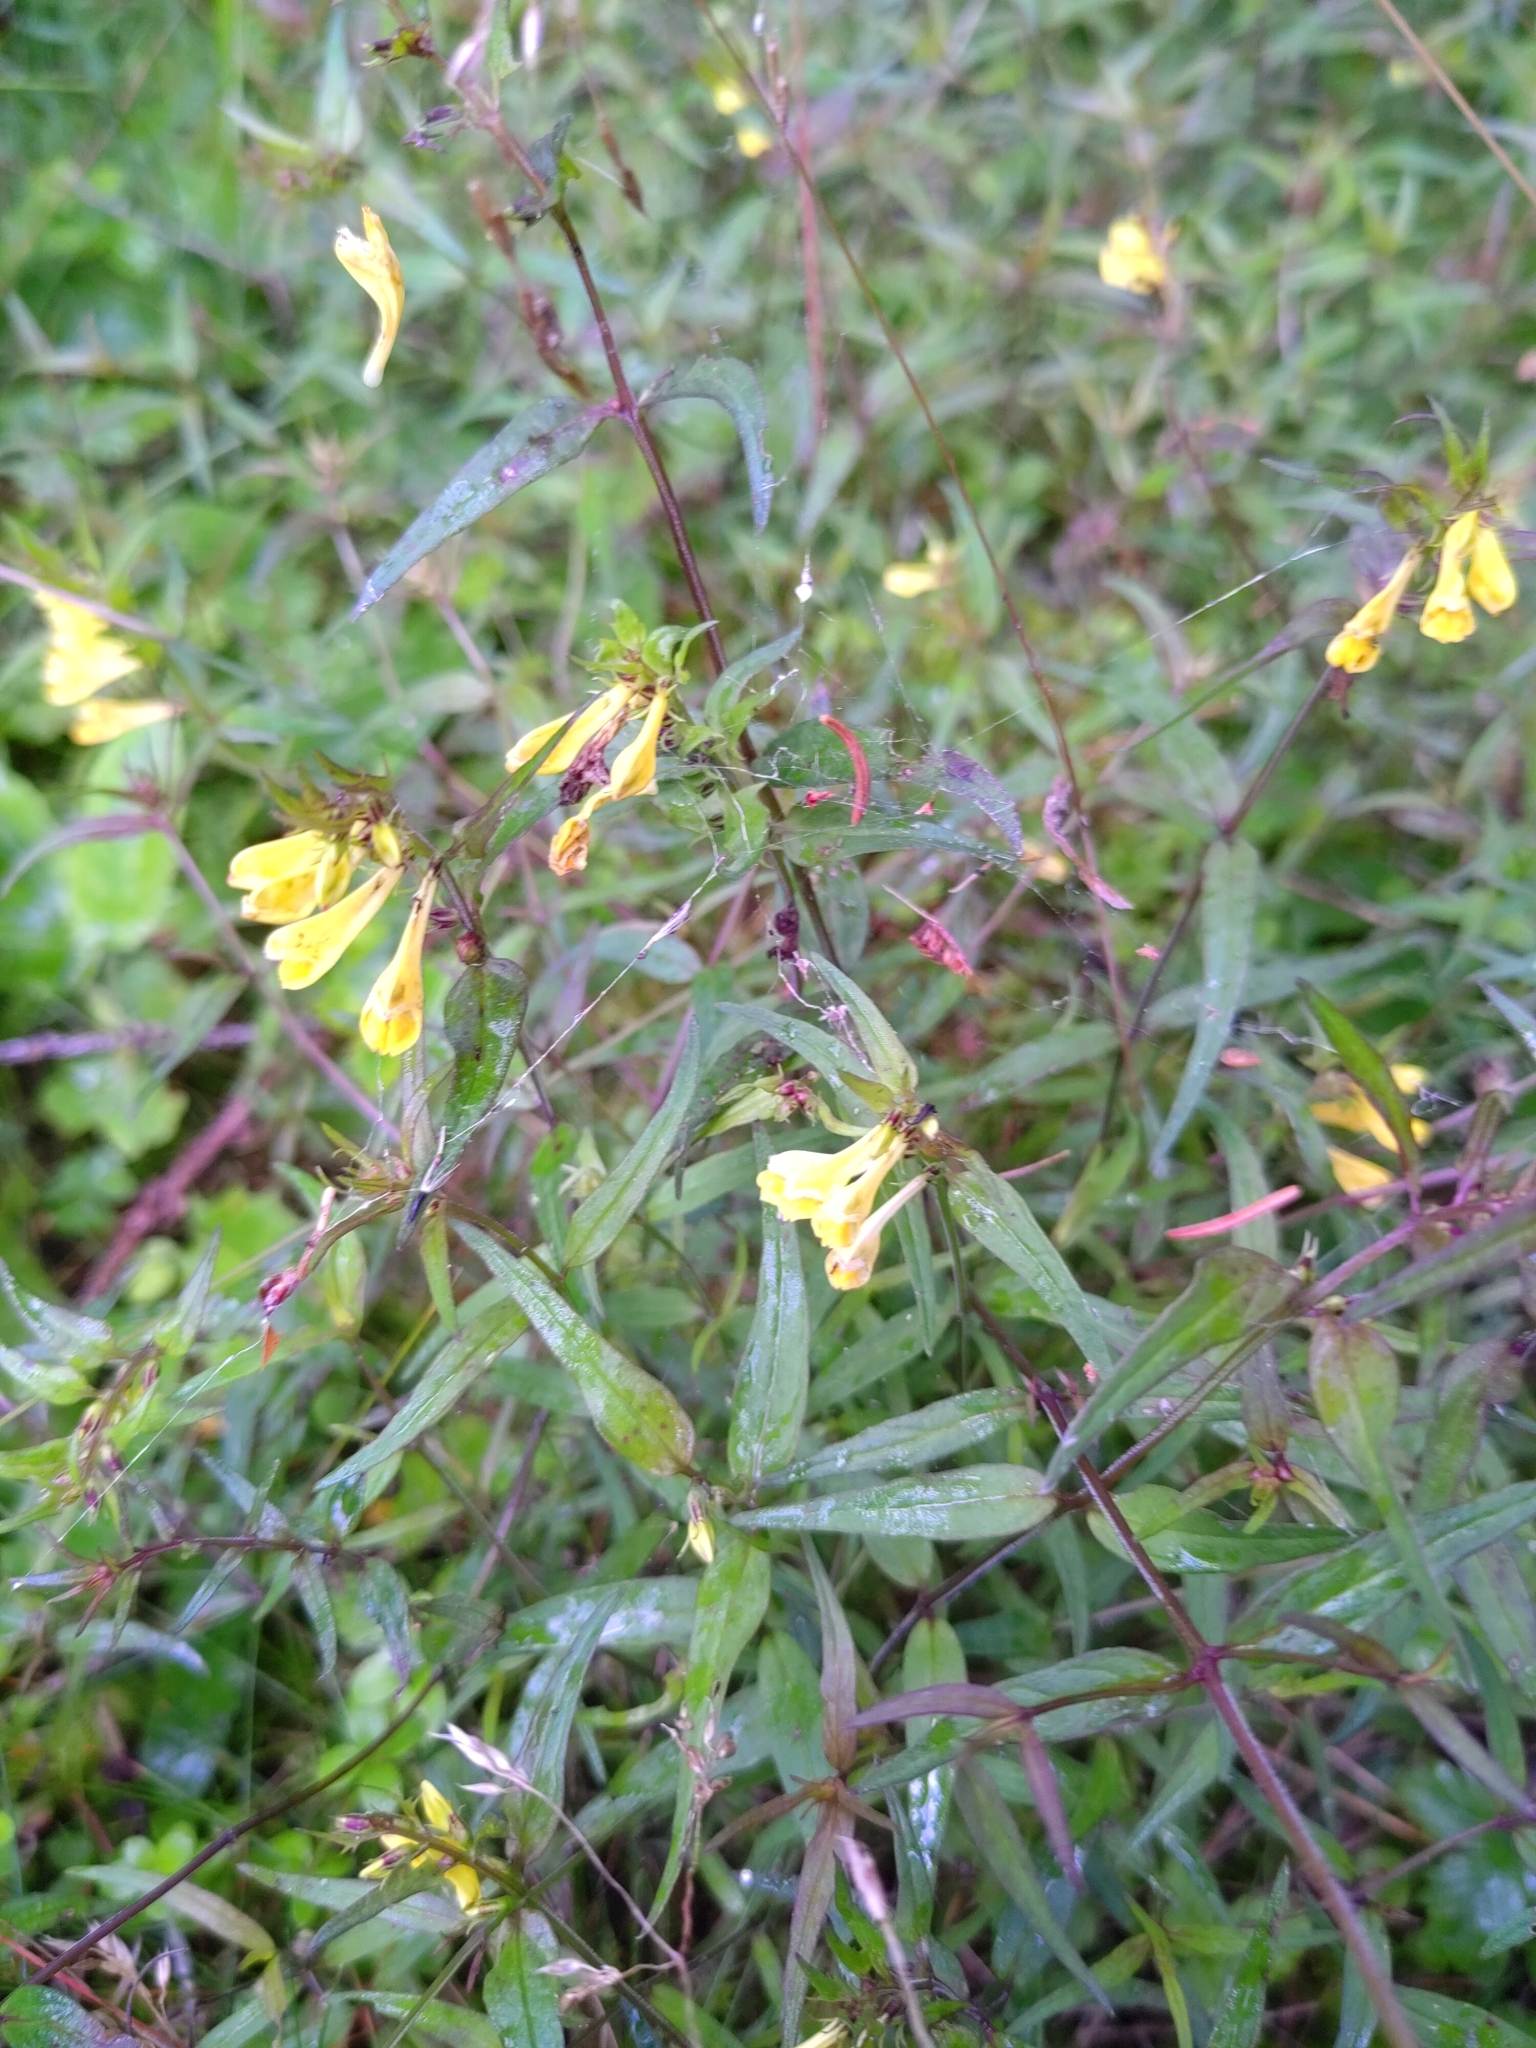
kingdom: Plantae
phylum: Tracheophyta
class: Magnoliopsida
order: Lamiales
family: Orobanchaceae
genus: Melampyrum
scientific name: Melampyrum pratense
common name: Common cow-wheat
